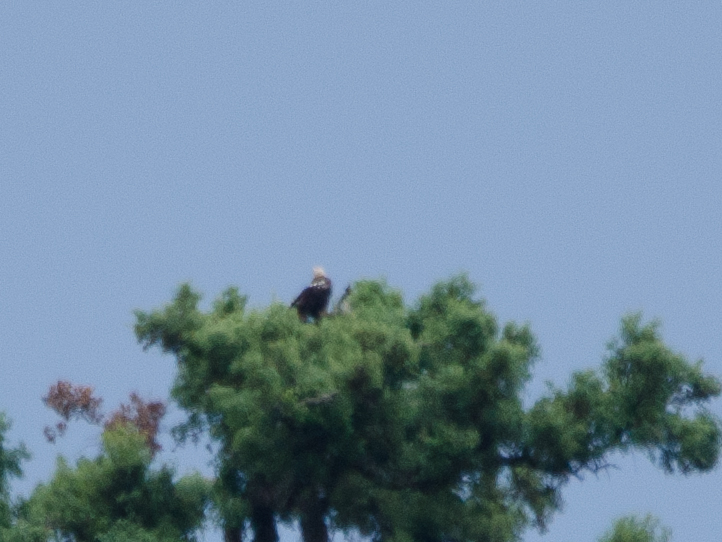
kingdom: Animalia
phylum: Chordata
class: Aves
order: Accipitriformes
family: Accipitridae
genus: Aquila
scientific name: Aquila adalberti
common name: Spanish imperial eagle
